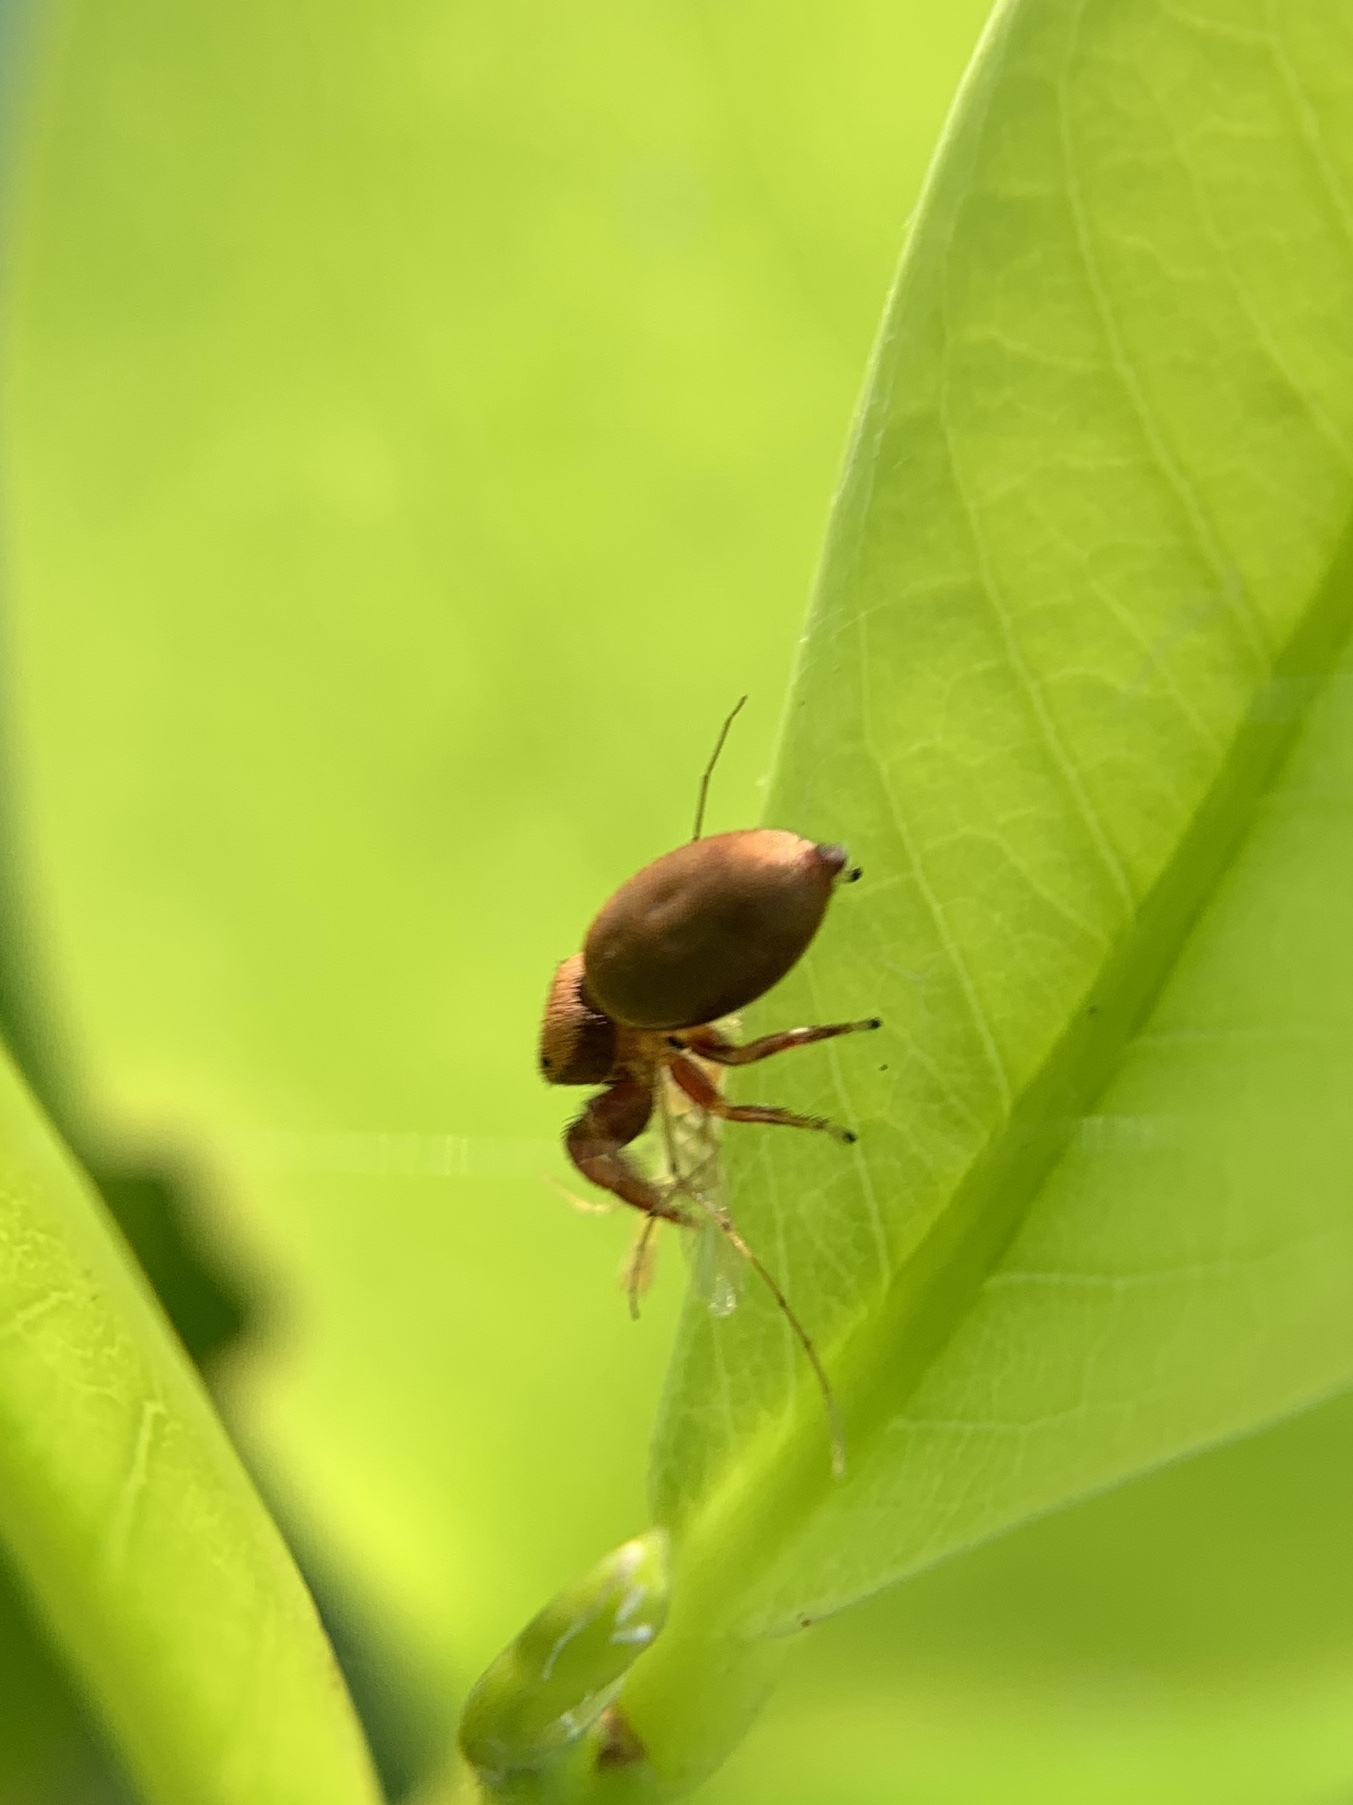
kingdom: Animalia
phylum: Arthropoda
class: Arachnida
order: Araneae
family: Salticidae
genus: Beata
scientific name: Beata wickhami
